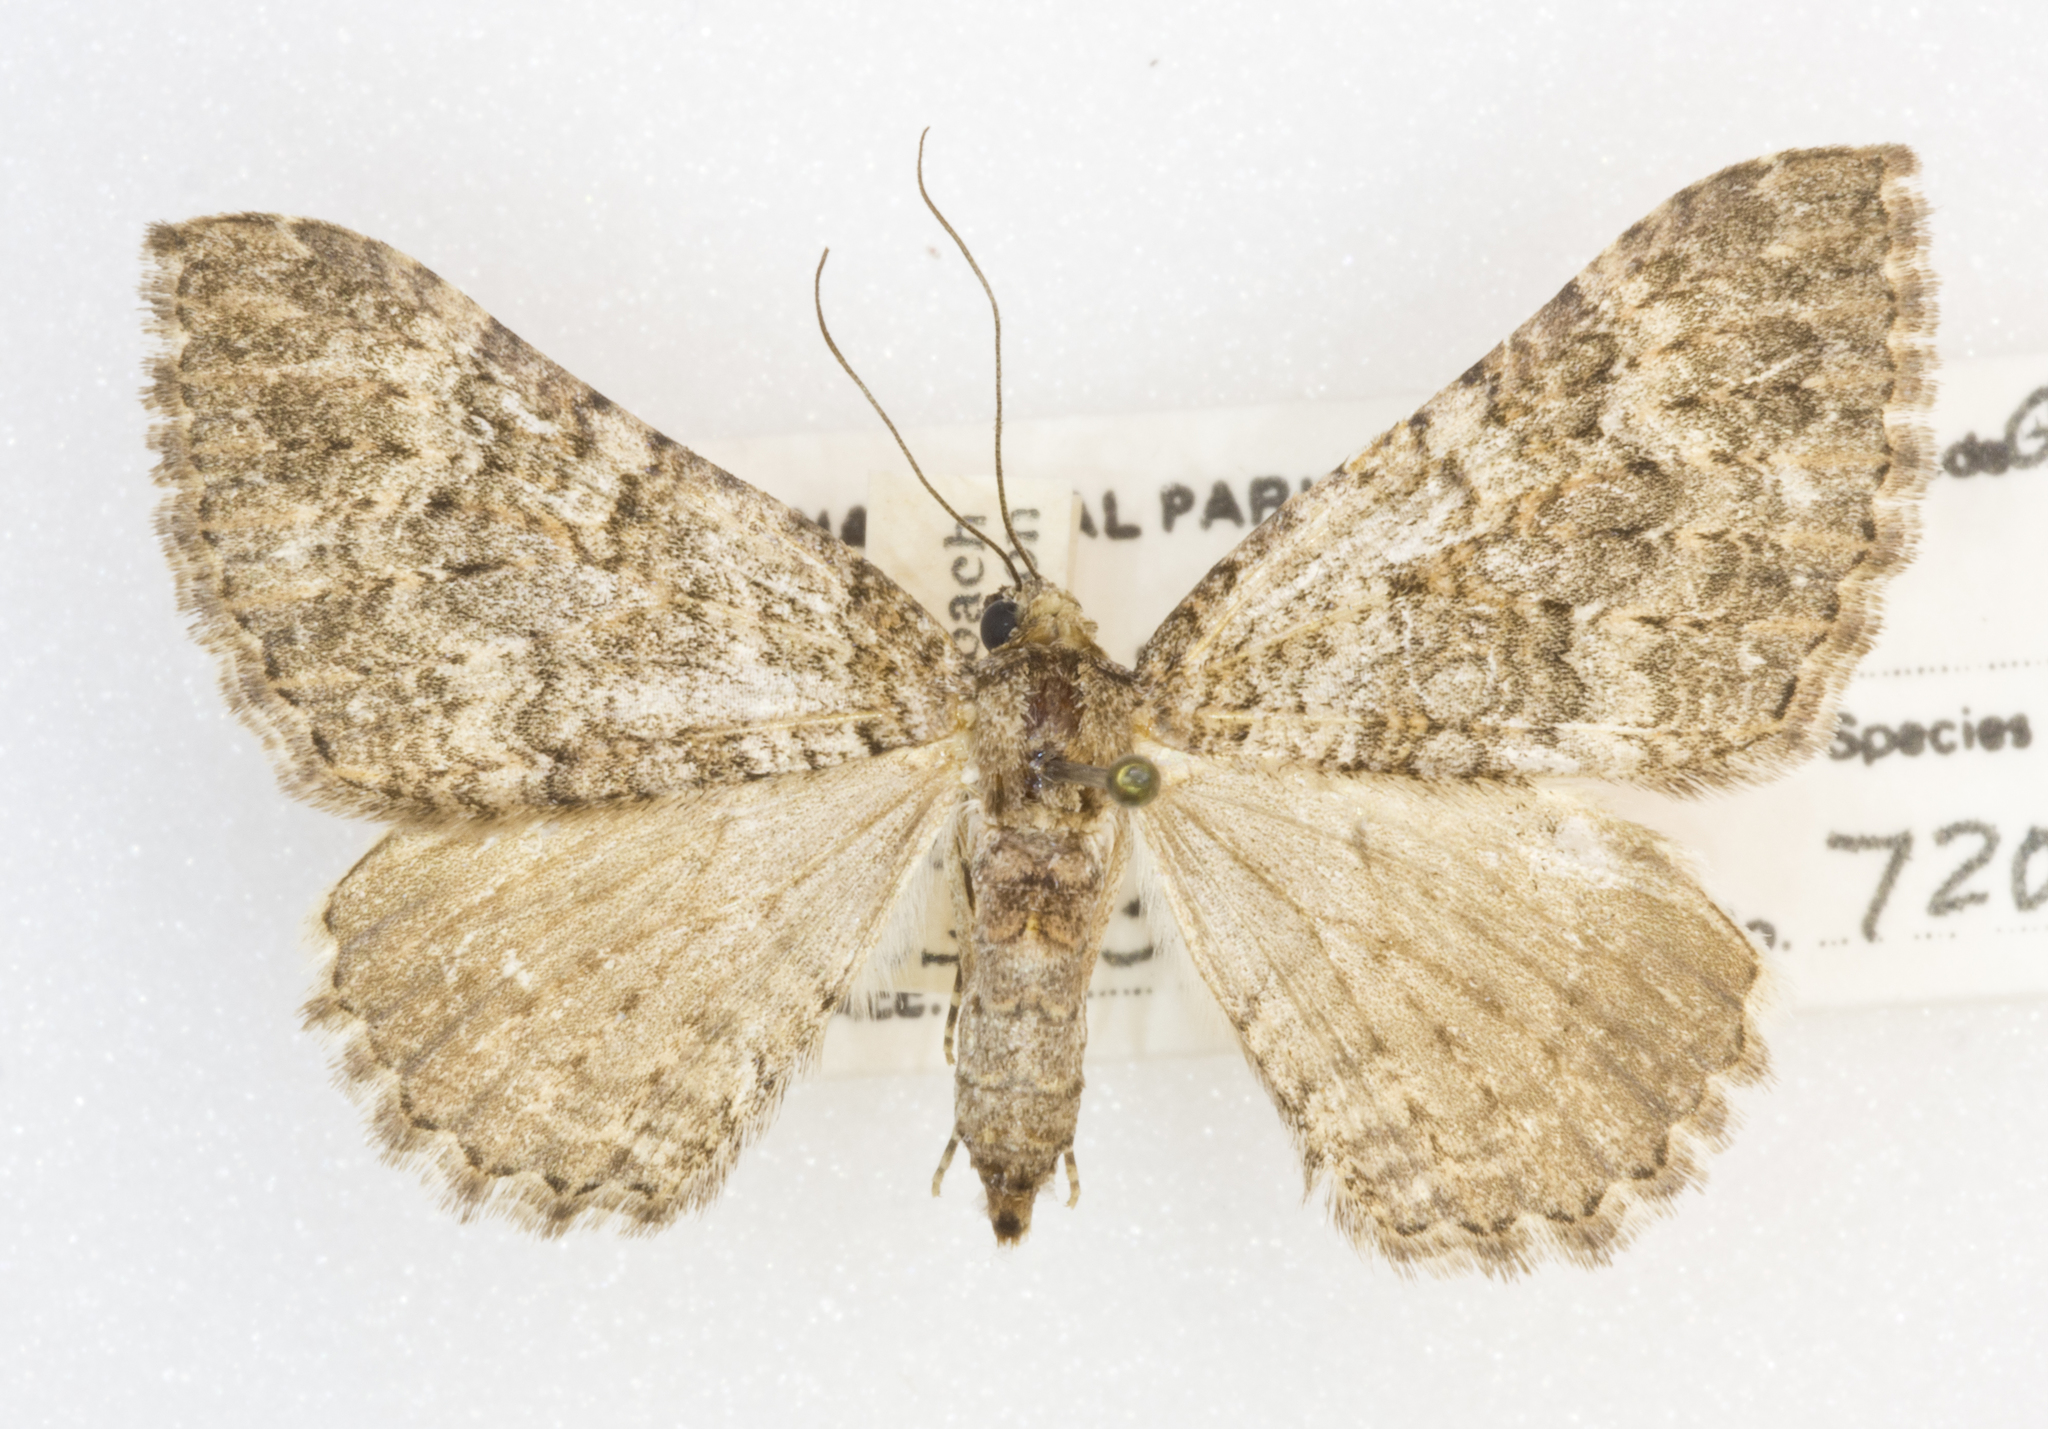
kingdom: Animalia
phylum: Arthropoda
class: Insecta
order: Lepidoptera
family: Geometridae
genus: Archirhoe
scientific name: Archirhoe neomexicana
